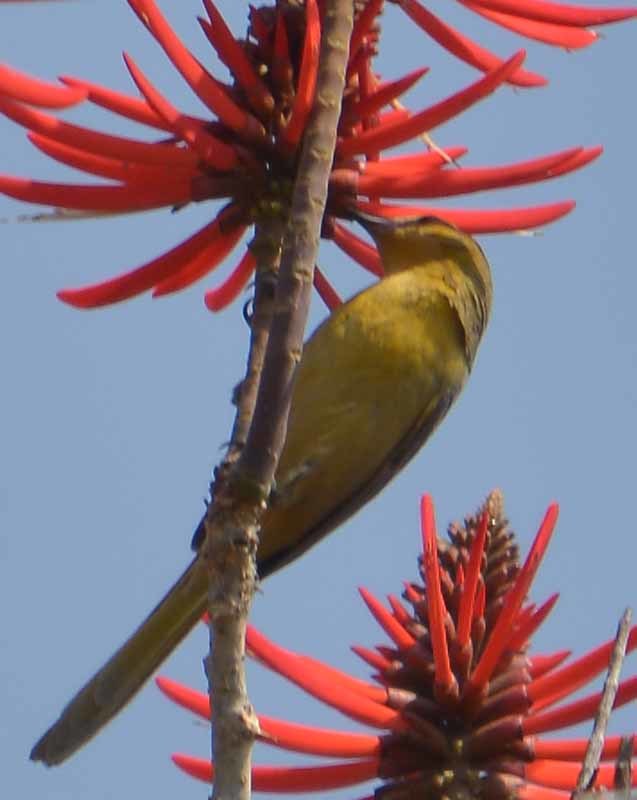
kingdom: Animalia
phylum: Chordata
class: Aves
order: Passeriformes
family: Icteridae
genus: Icterus
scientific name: Icterus cucullatus
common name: Hooded oriole
